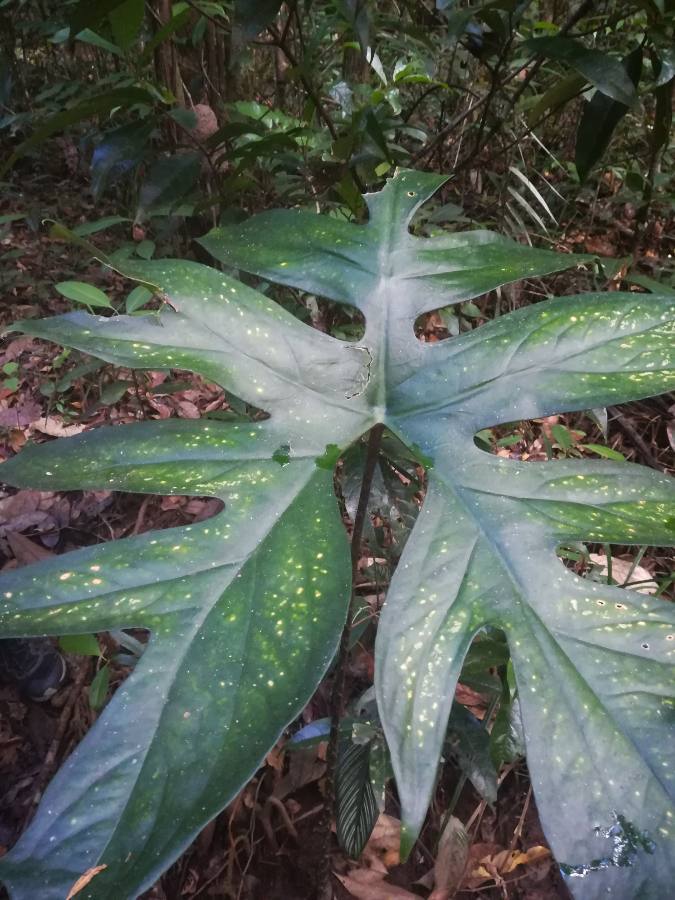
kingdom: Plantae
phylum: Tracheophyta
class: Liliopsida
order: Alismatales
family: Araceae
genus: Anaphyllopsis
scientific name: Anaphyllopsis americana
